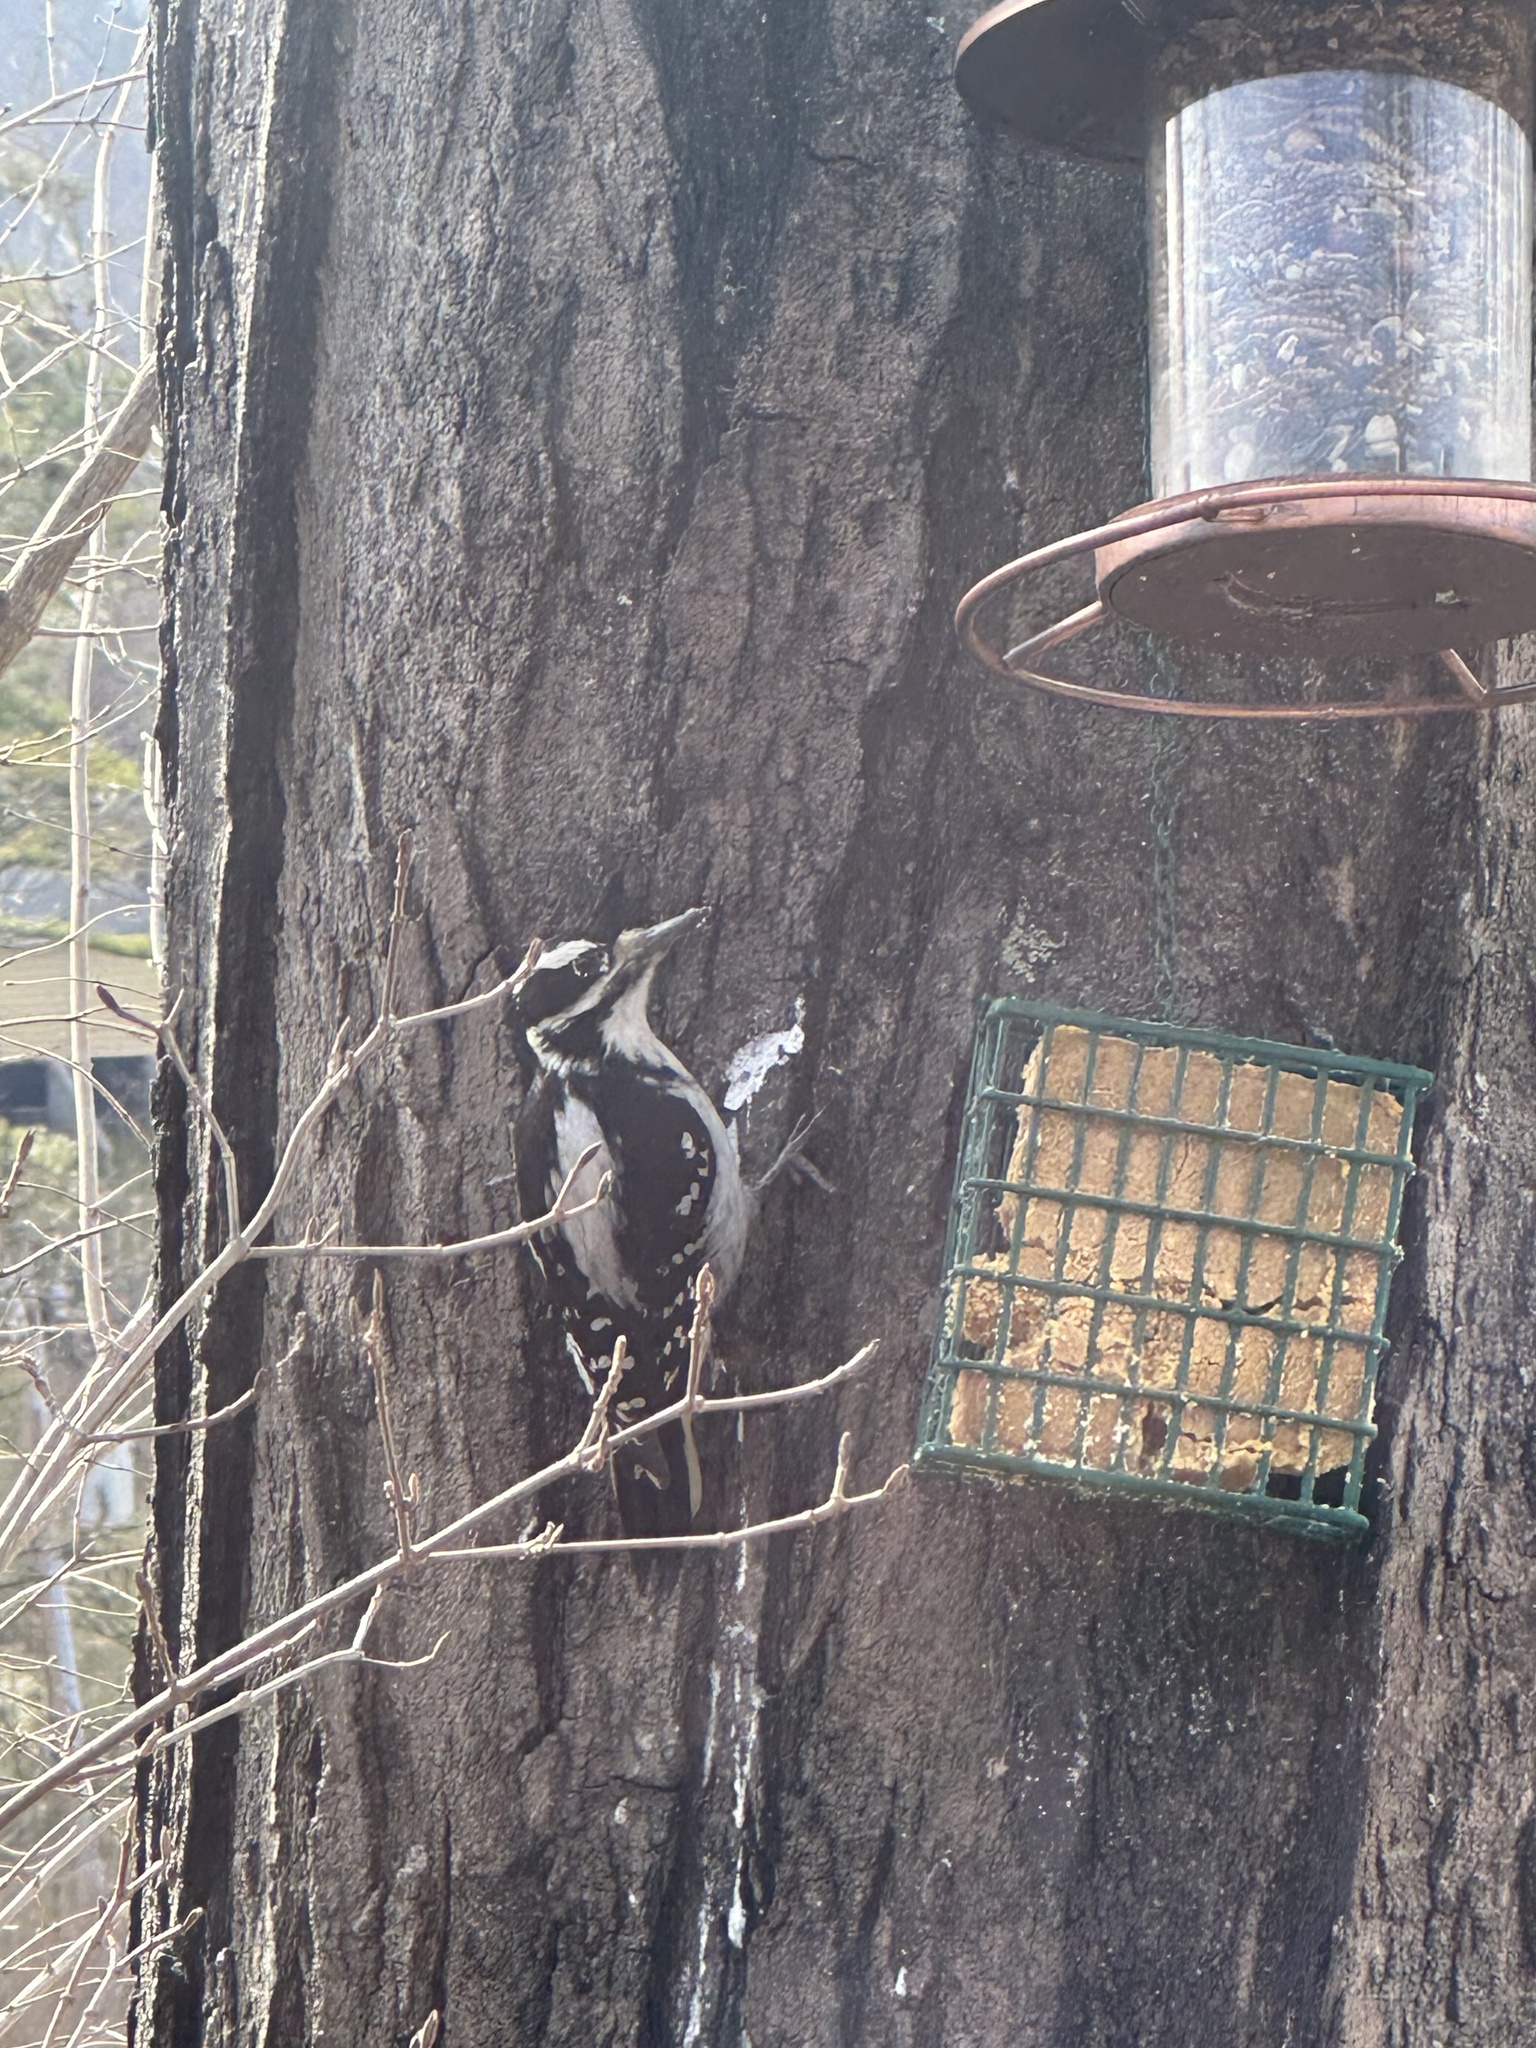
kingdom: Animalia
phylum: Chordata
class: Aves
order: Piciformes
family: Picidae
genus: Leuconotopicus
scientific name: Leuconotopicus villosus
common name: Hairy woodpecker
